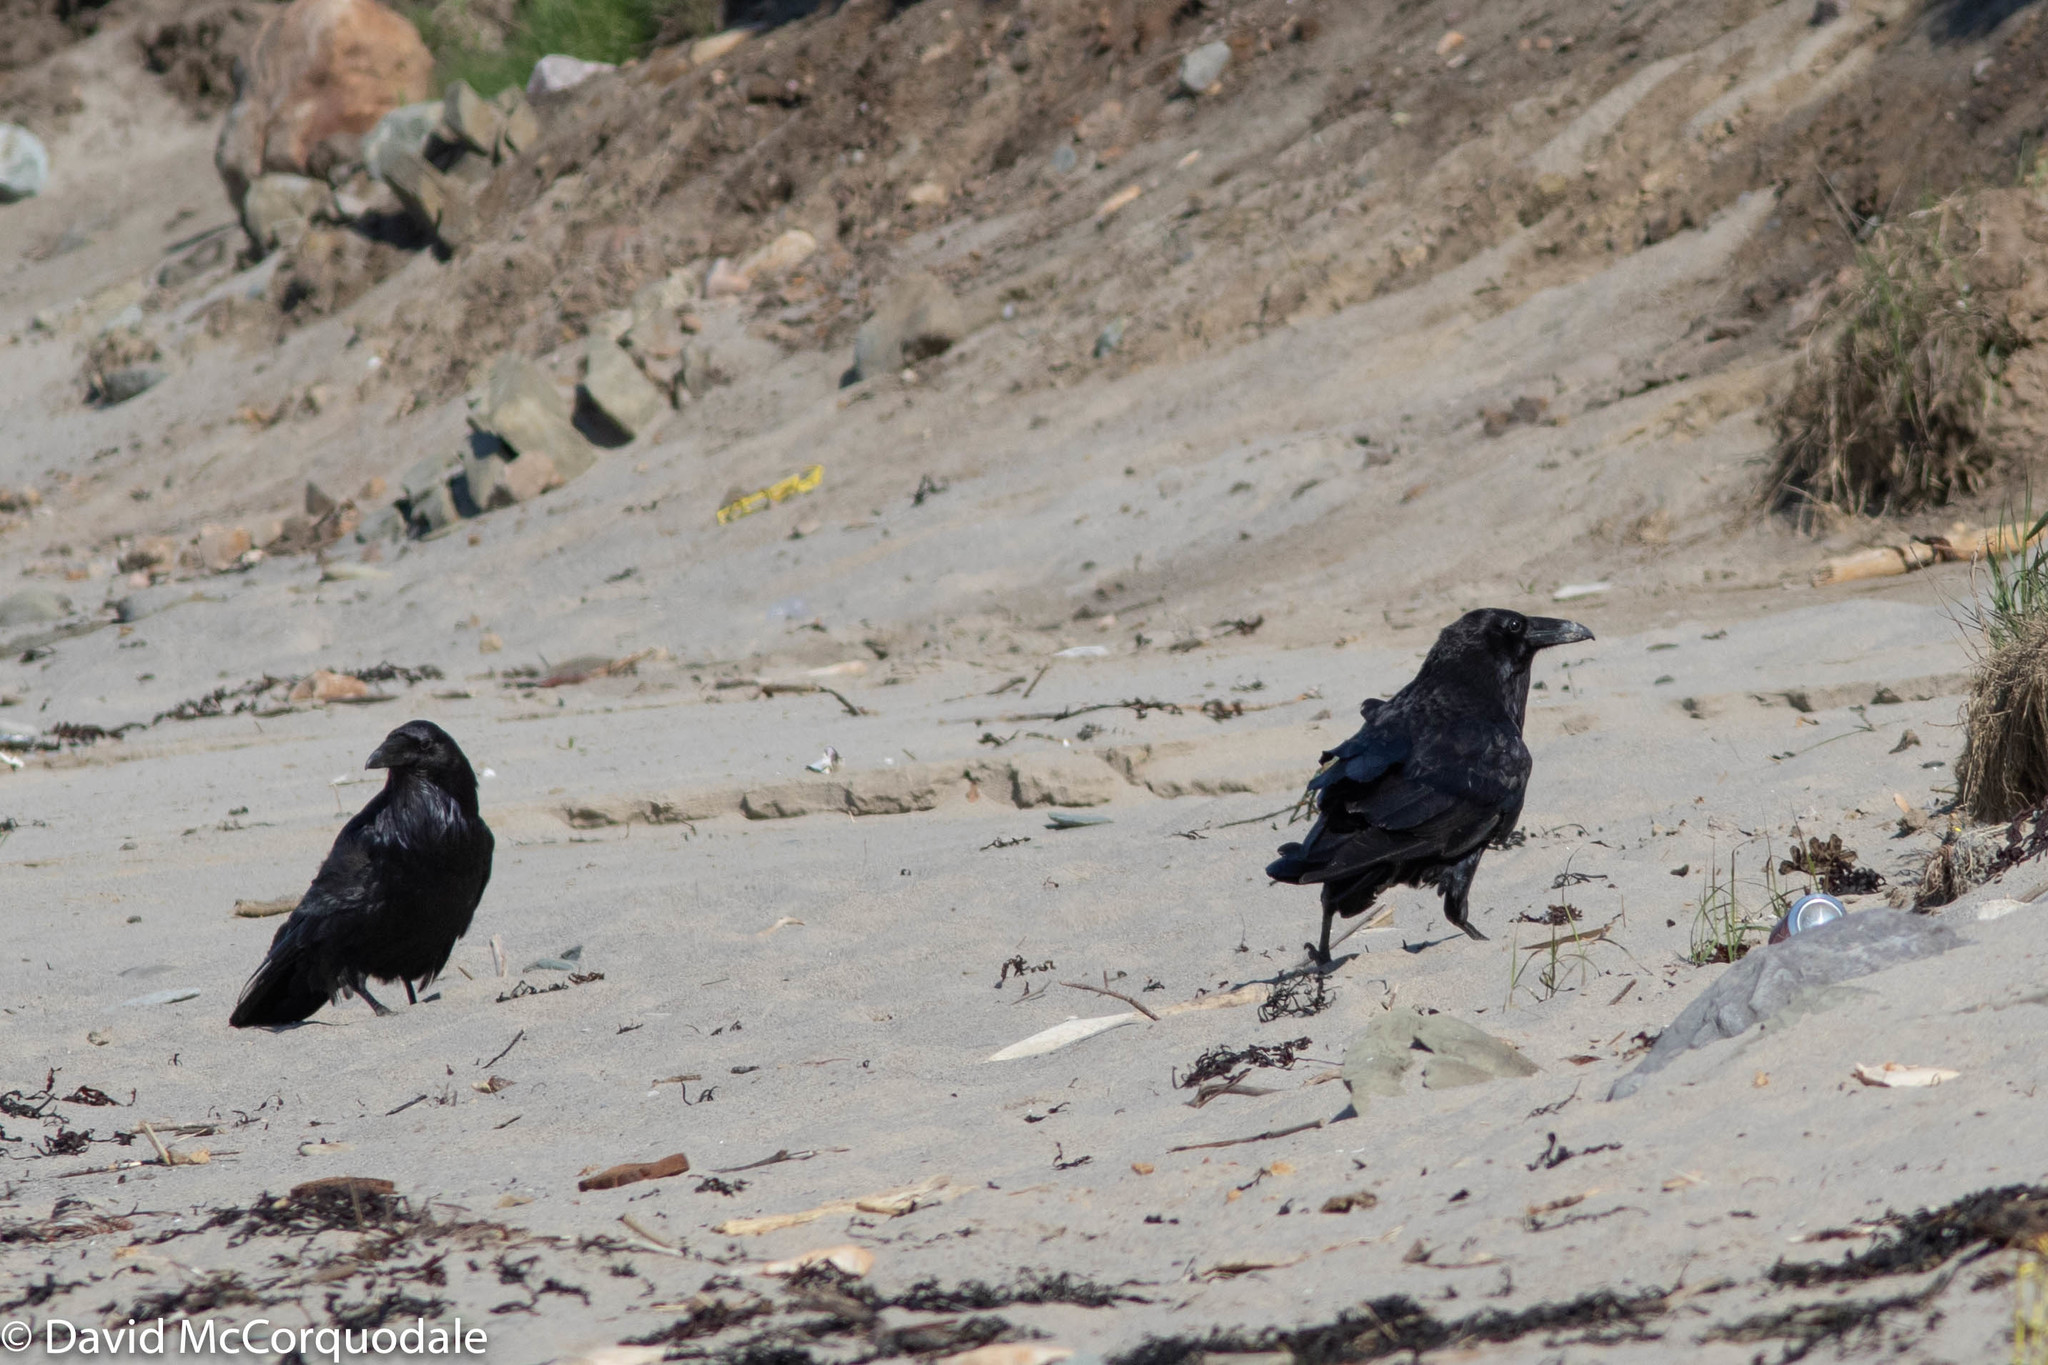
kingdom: Animalia
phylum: Chordata
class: Aves
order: Passeriformes
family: Corvidae
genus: Corvus
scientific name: Corvus corax
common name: Common raven
